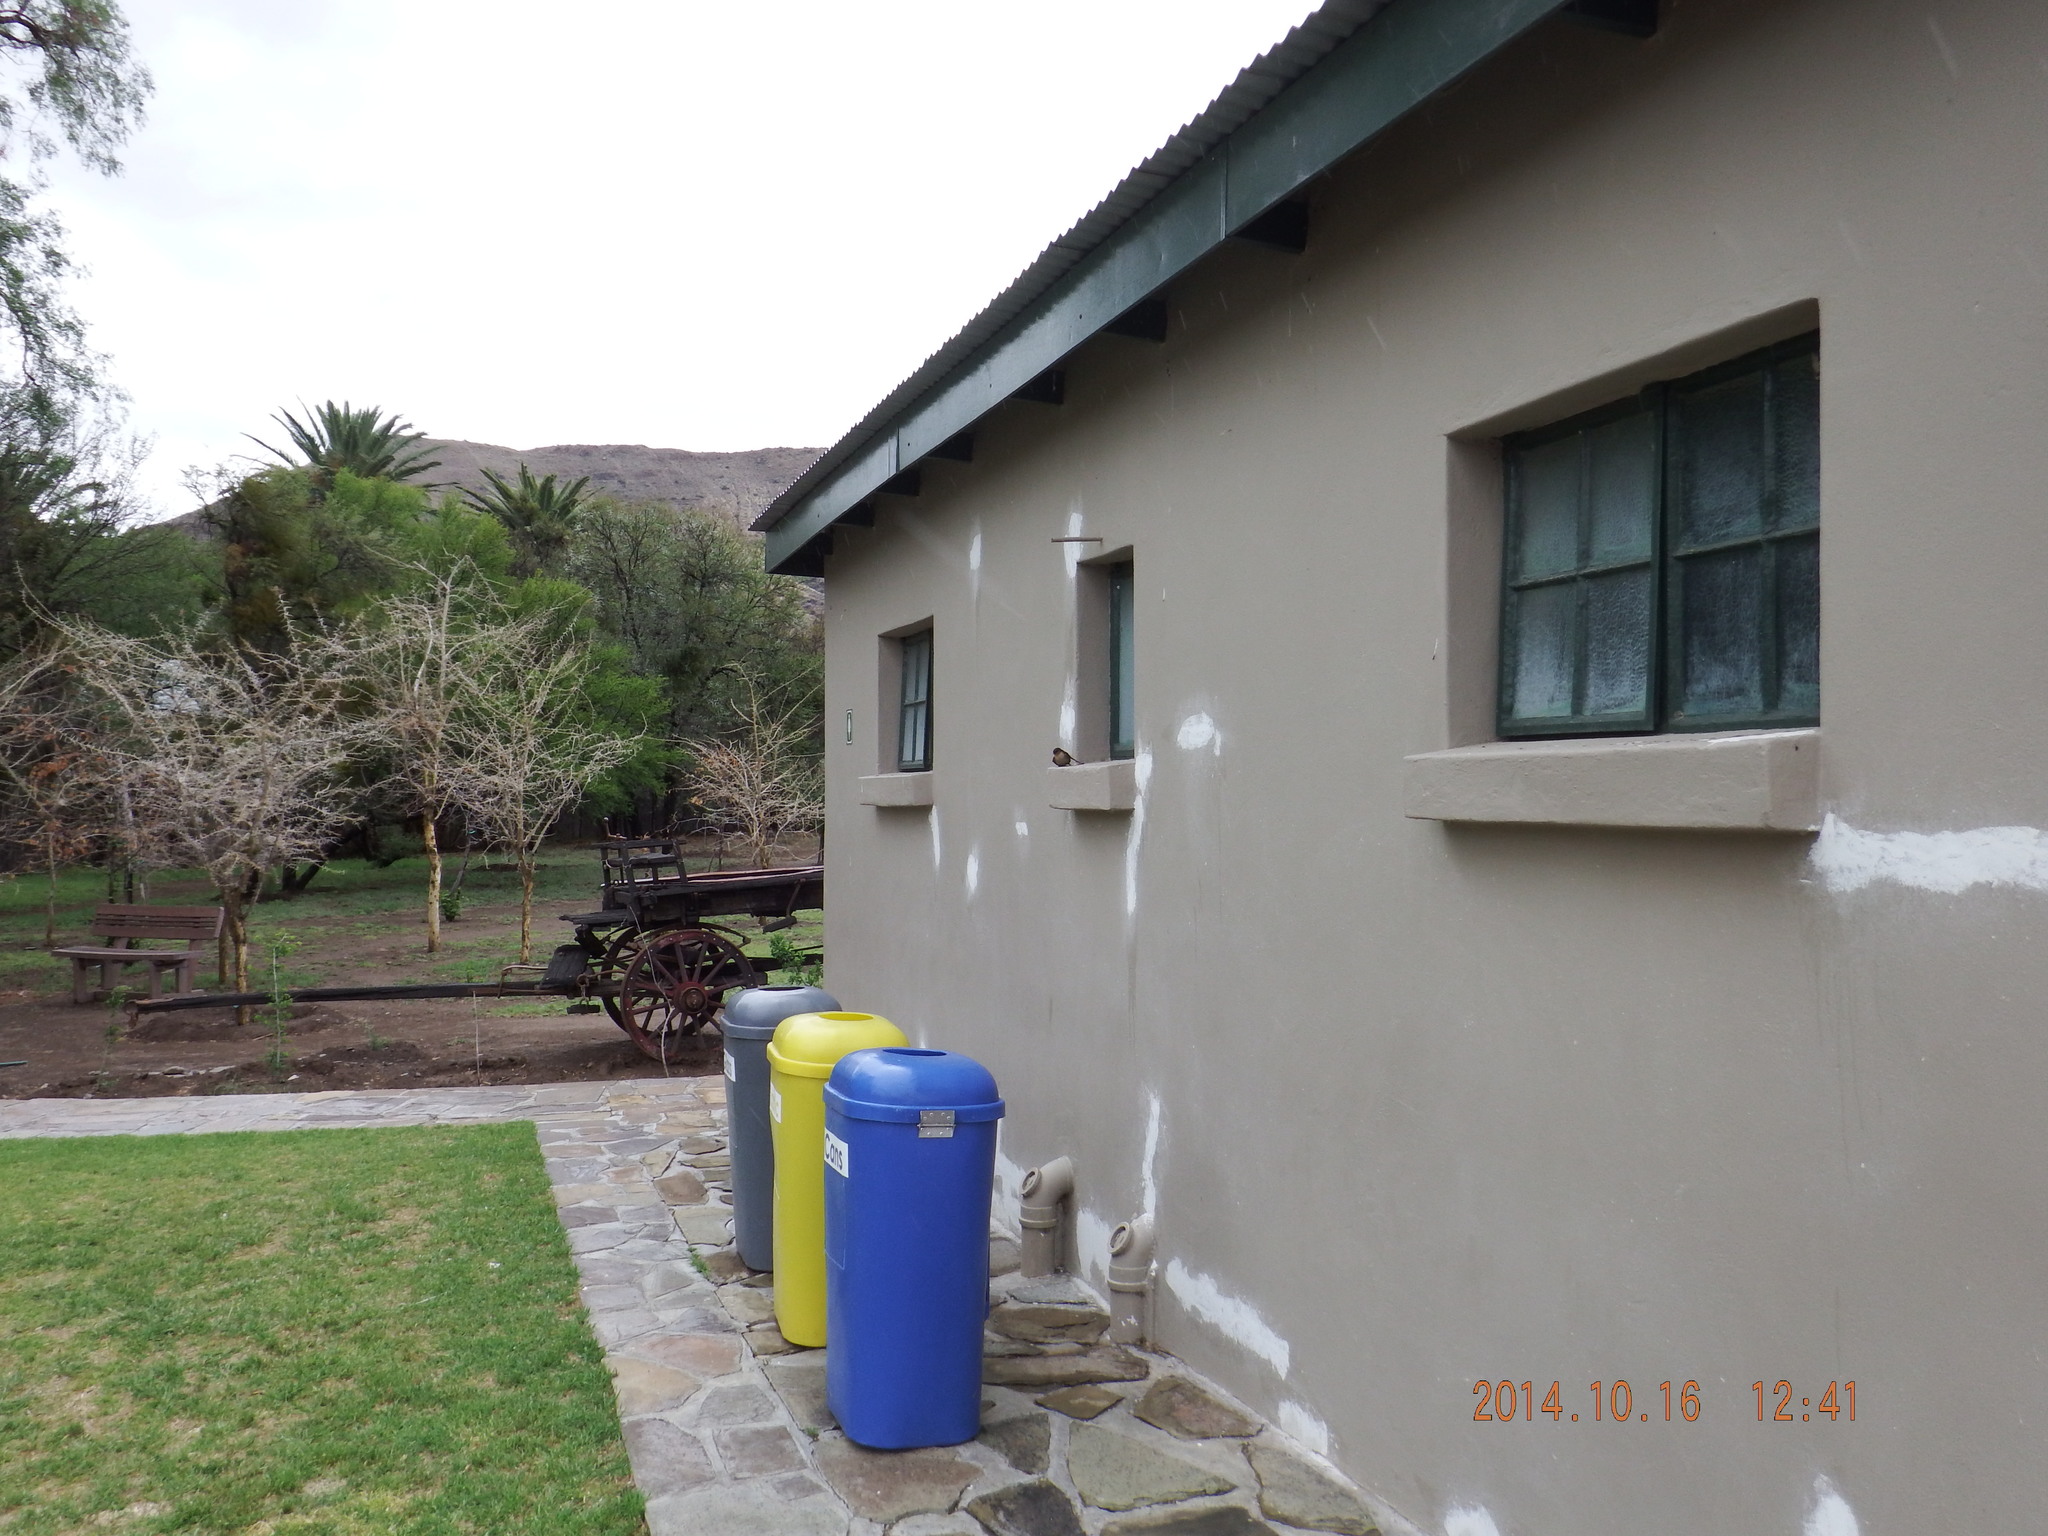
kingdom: Animalia
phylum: Chordata
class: Aves
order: Passeriformes
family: Hirundinidae
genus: Ptyonoprogne
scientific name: Ptyonoprogne fuligula
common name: Rock martin
